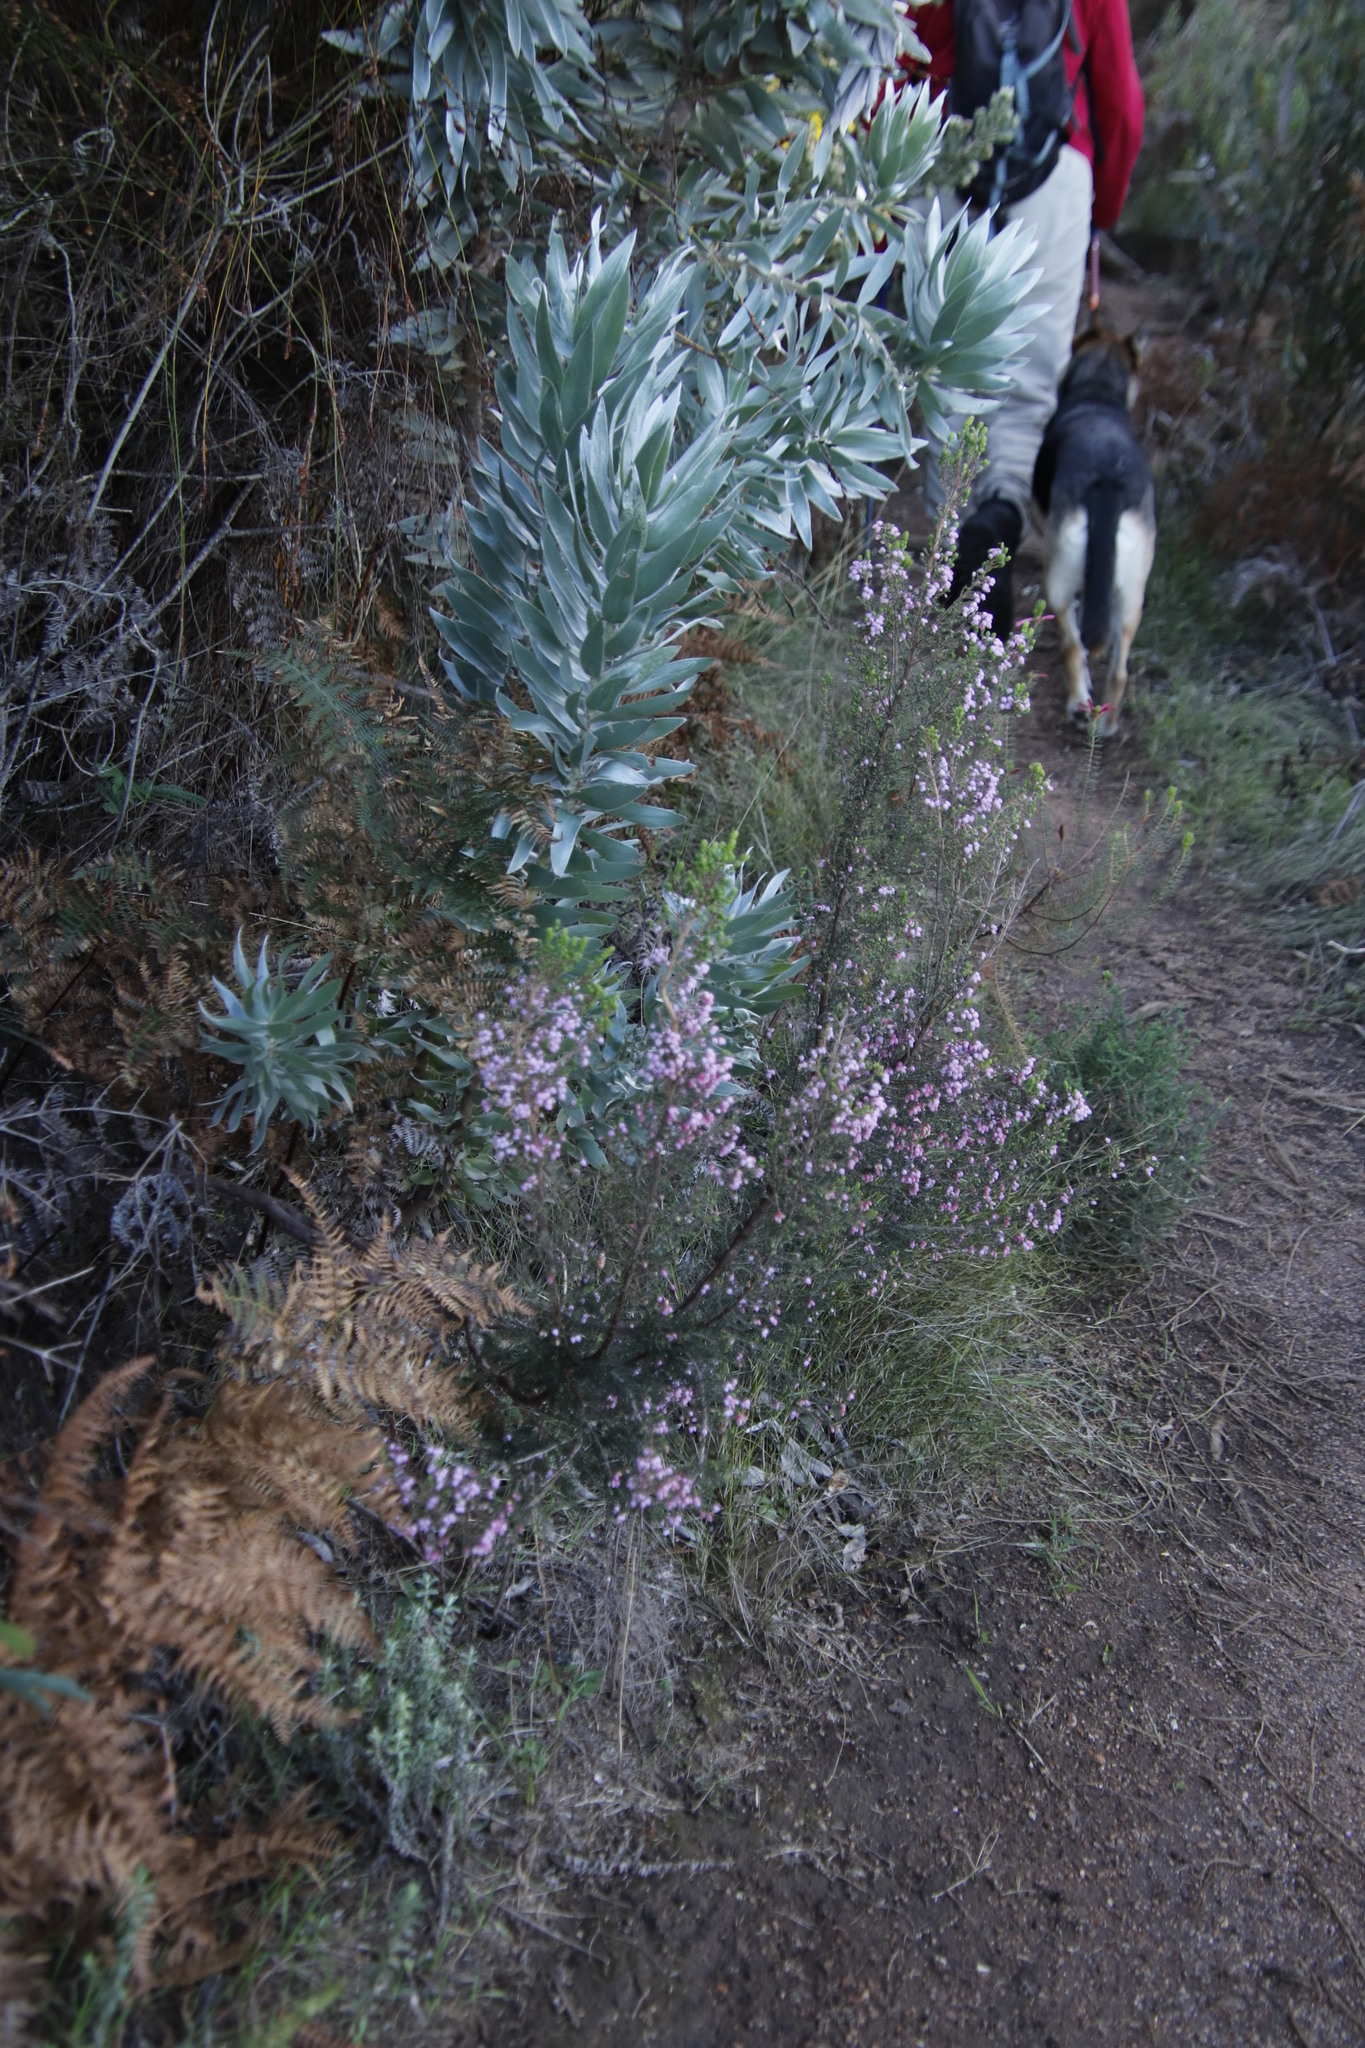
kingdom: Plantae
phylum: Tracheophyta
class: Magnoliopsida
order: Proteales
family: Proteaceae
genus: Leucadendron
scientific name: Leucadendron argenteum
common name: Cape silver tree
